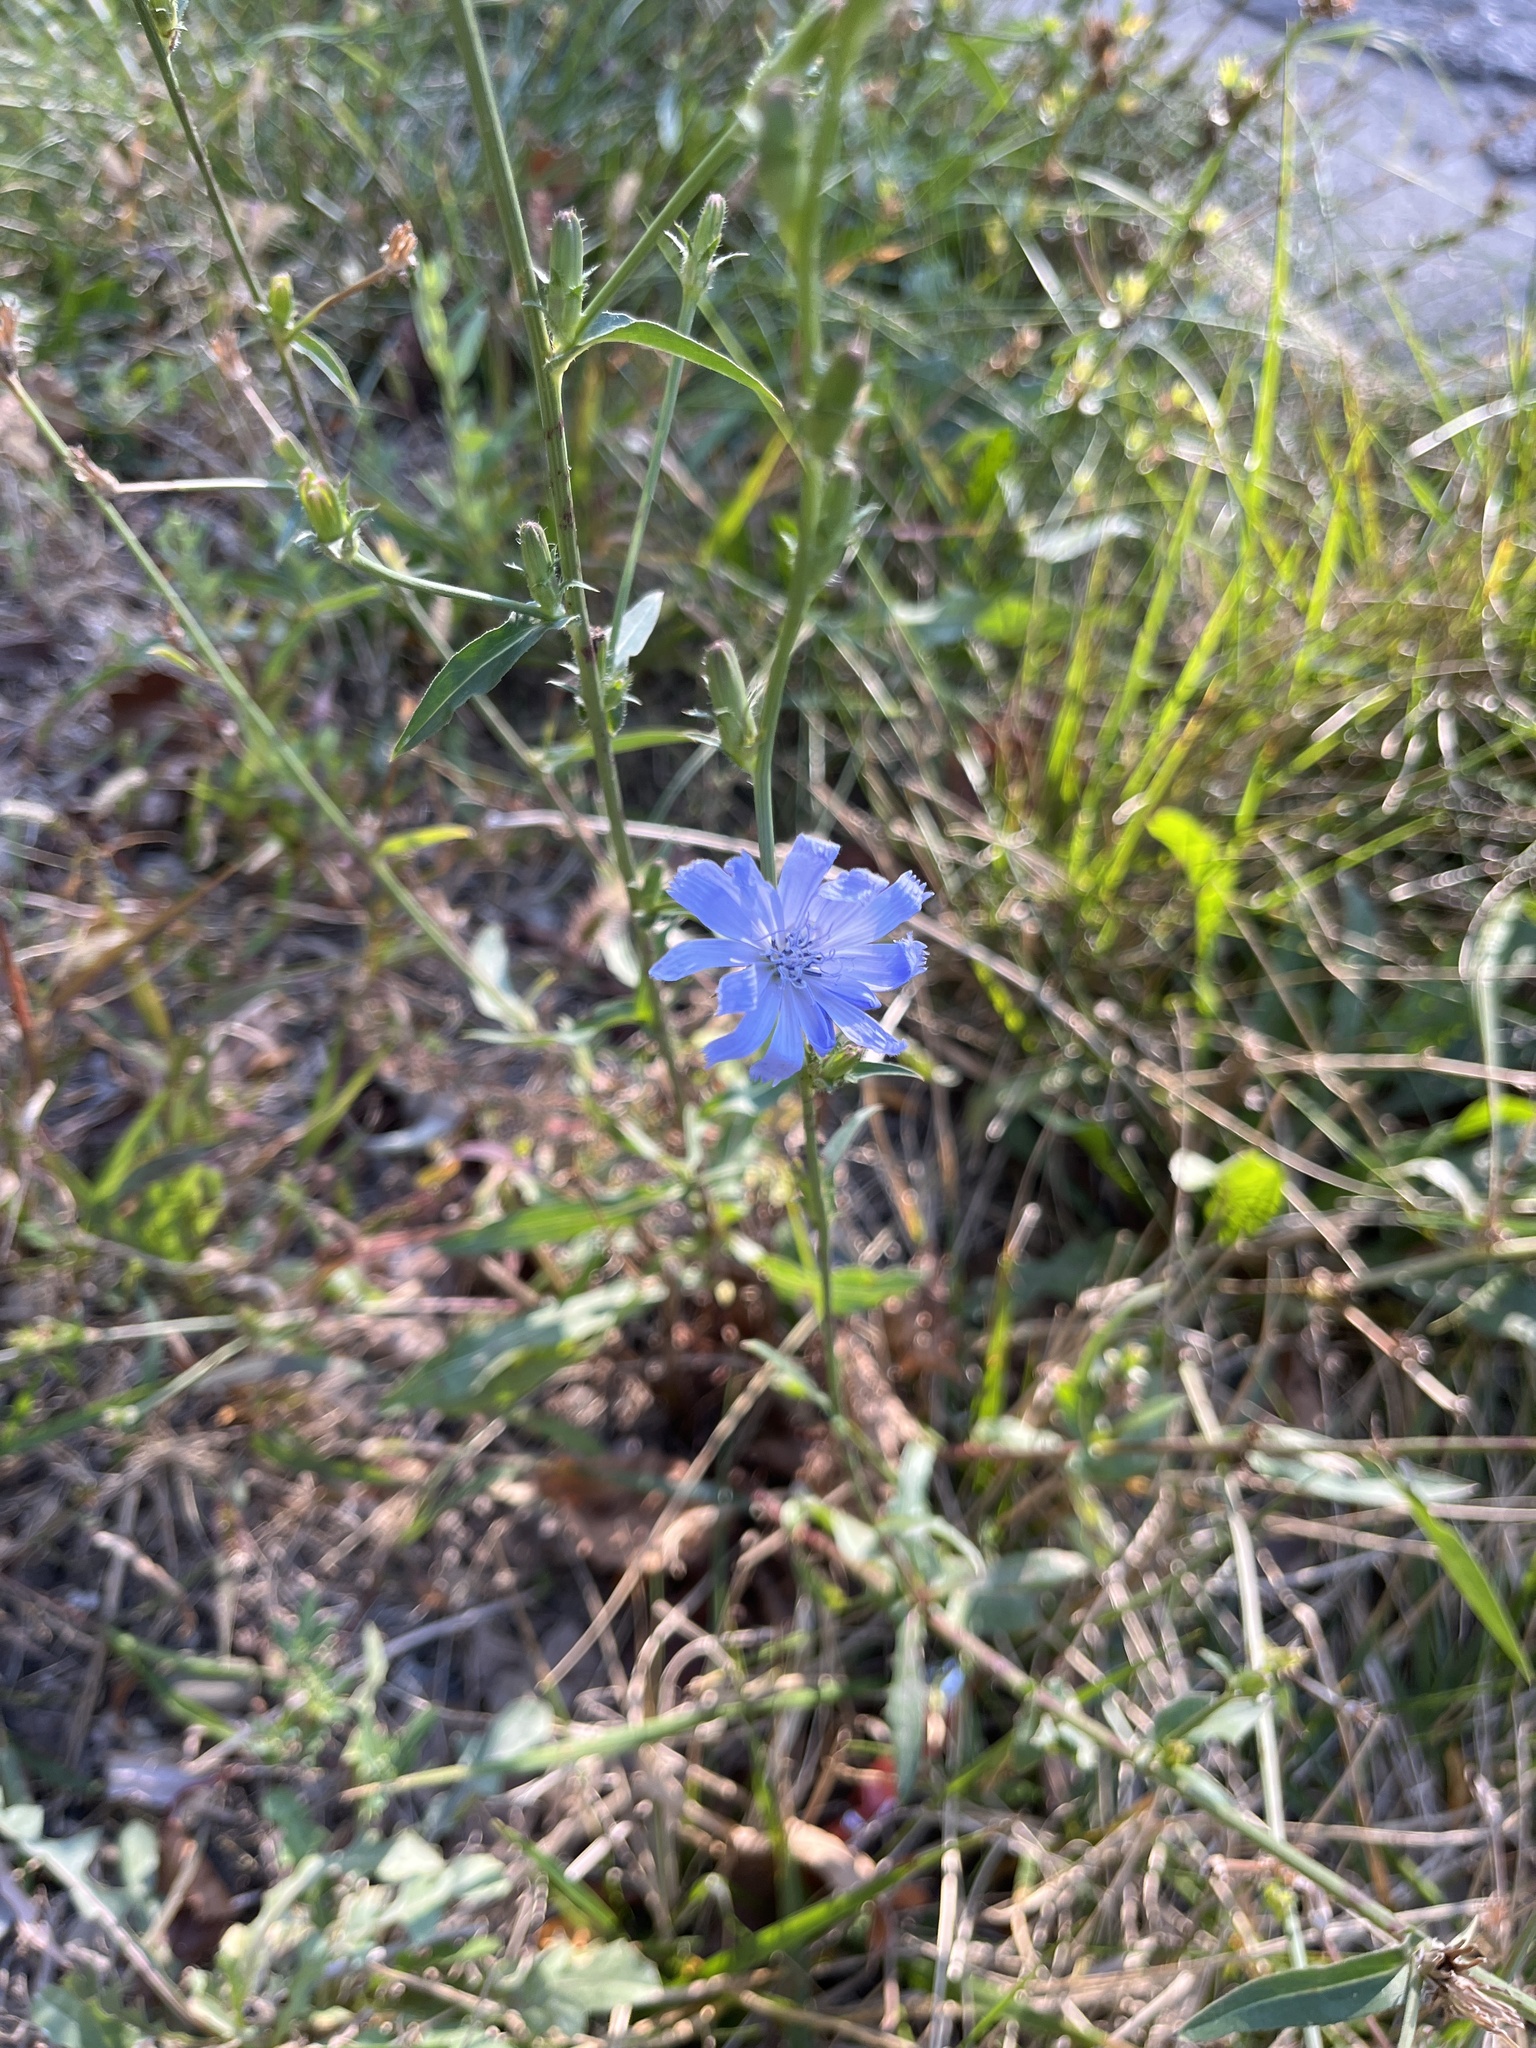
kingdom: Plantae
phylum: Tracheophyta
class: Magnoliopsida
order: Asterales
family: Asteraceae
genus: Cichorium
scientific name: Cichorium intybus
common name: Chicory
